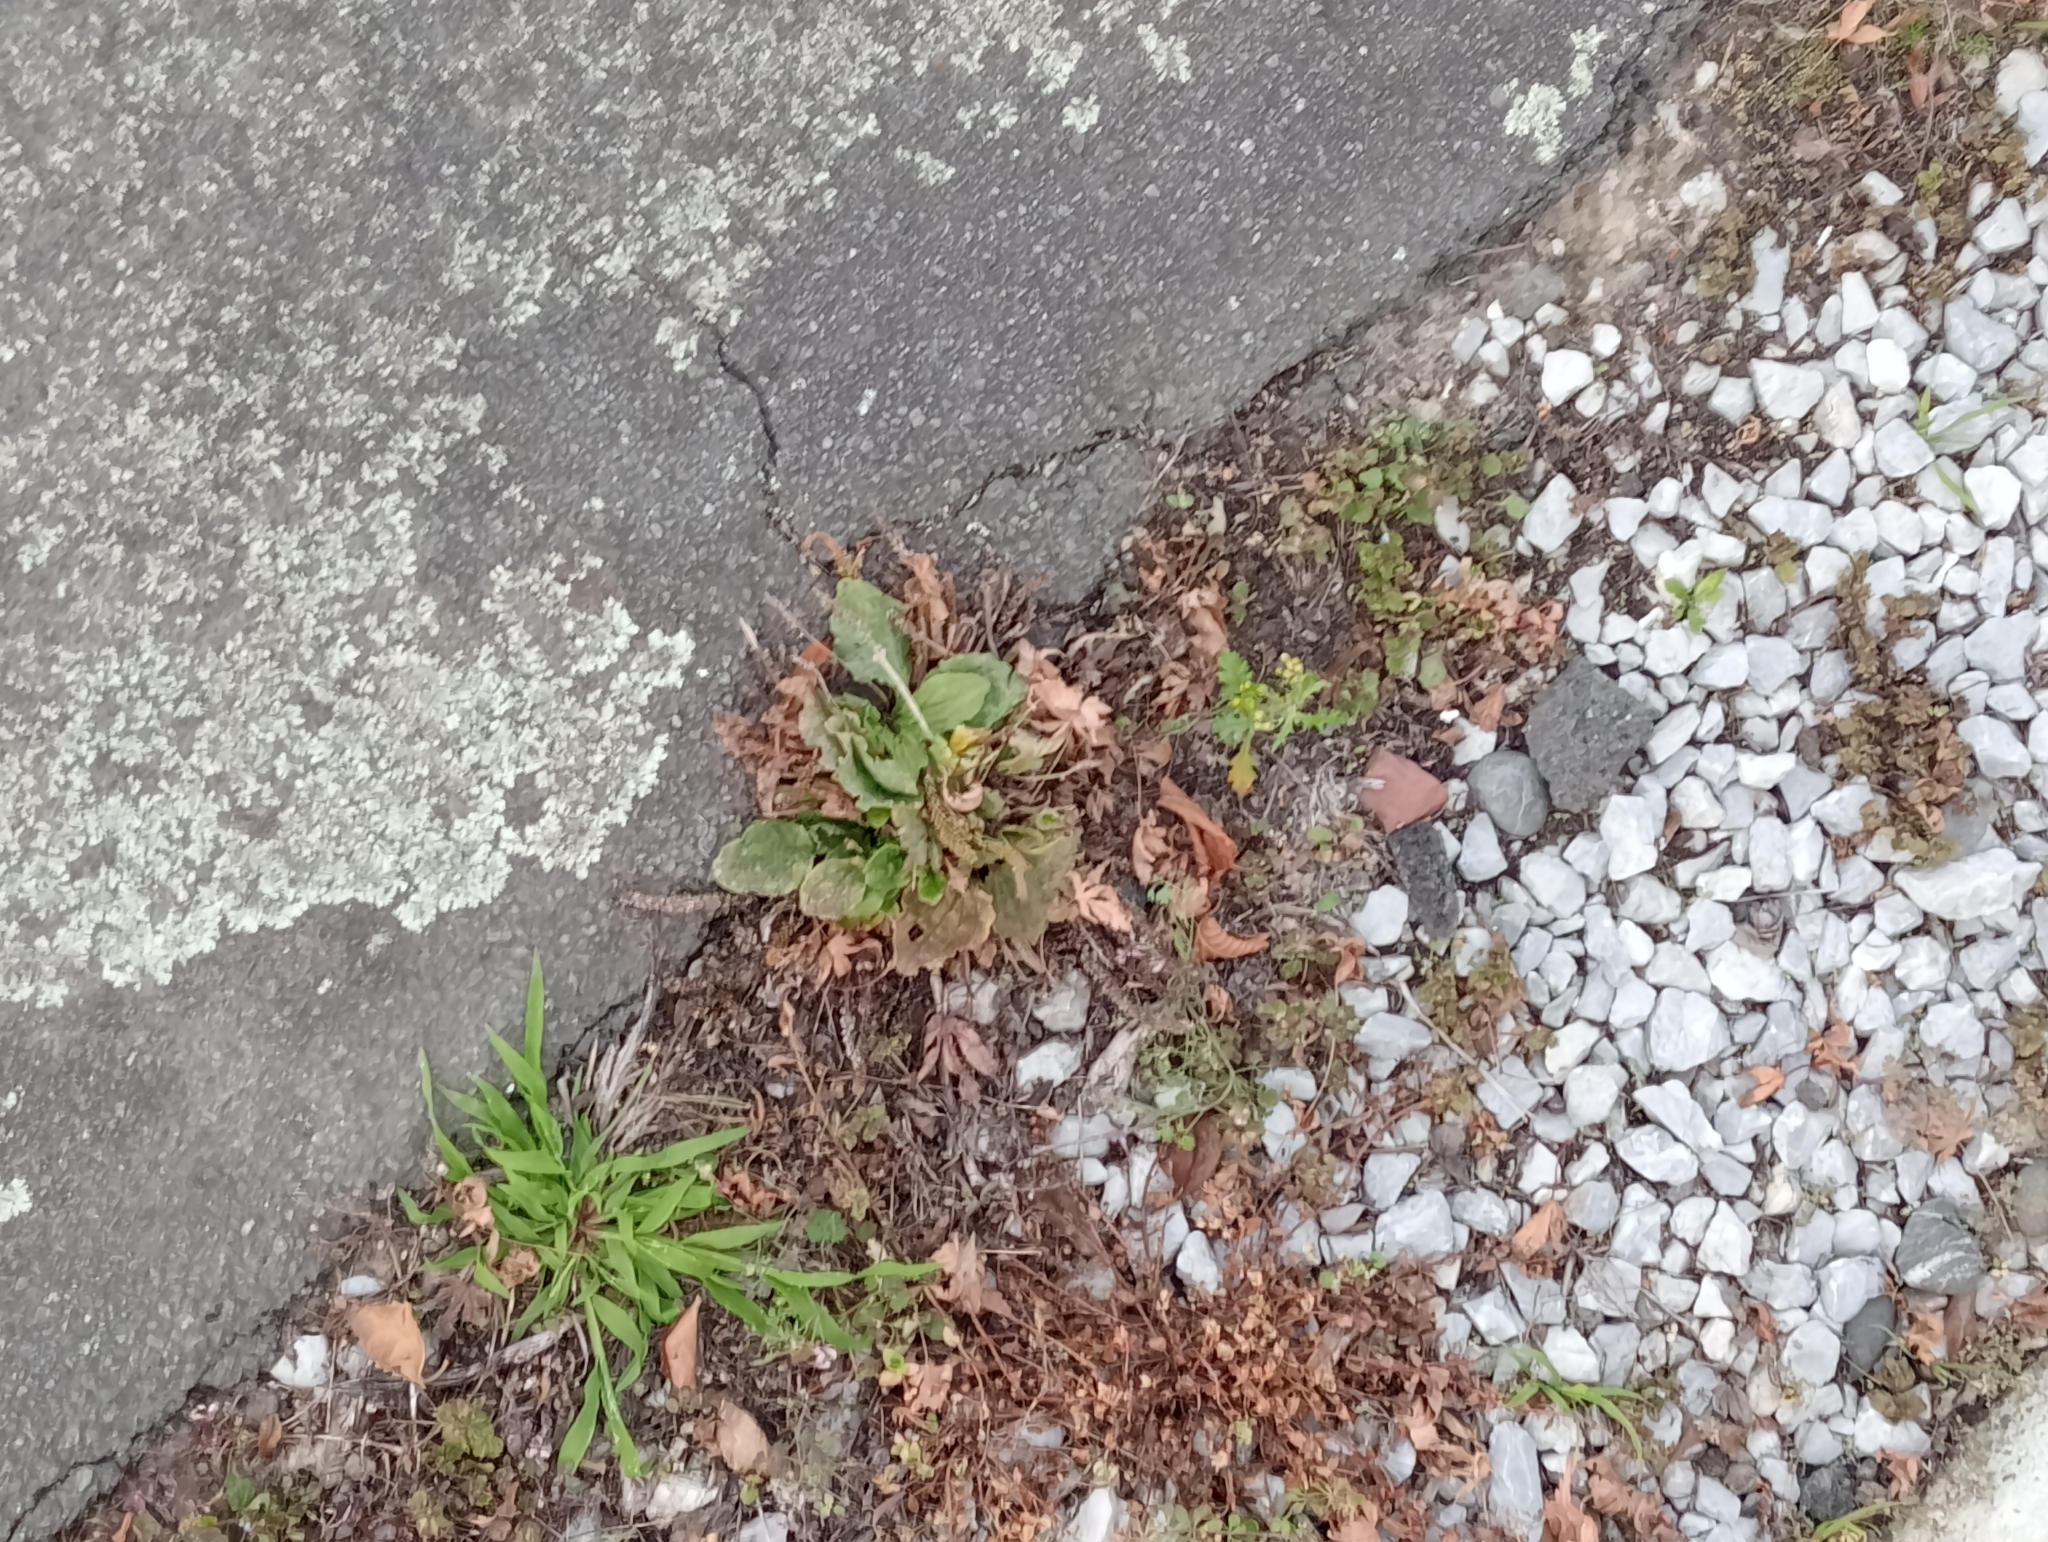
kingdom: Plantae
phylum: Tracheophyta
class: Magnoliopsida
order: Lamiales
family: Plantaginaceae
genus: Plantago
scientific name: Plantago major
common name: Common plantain
